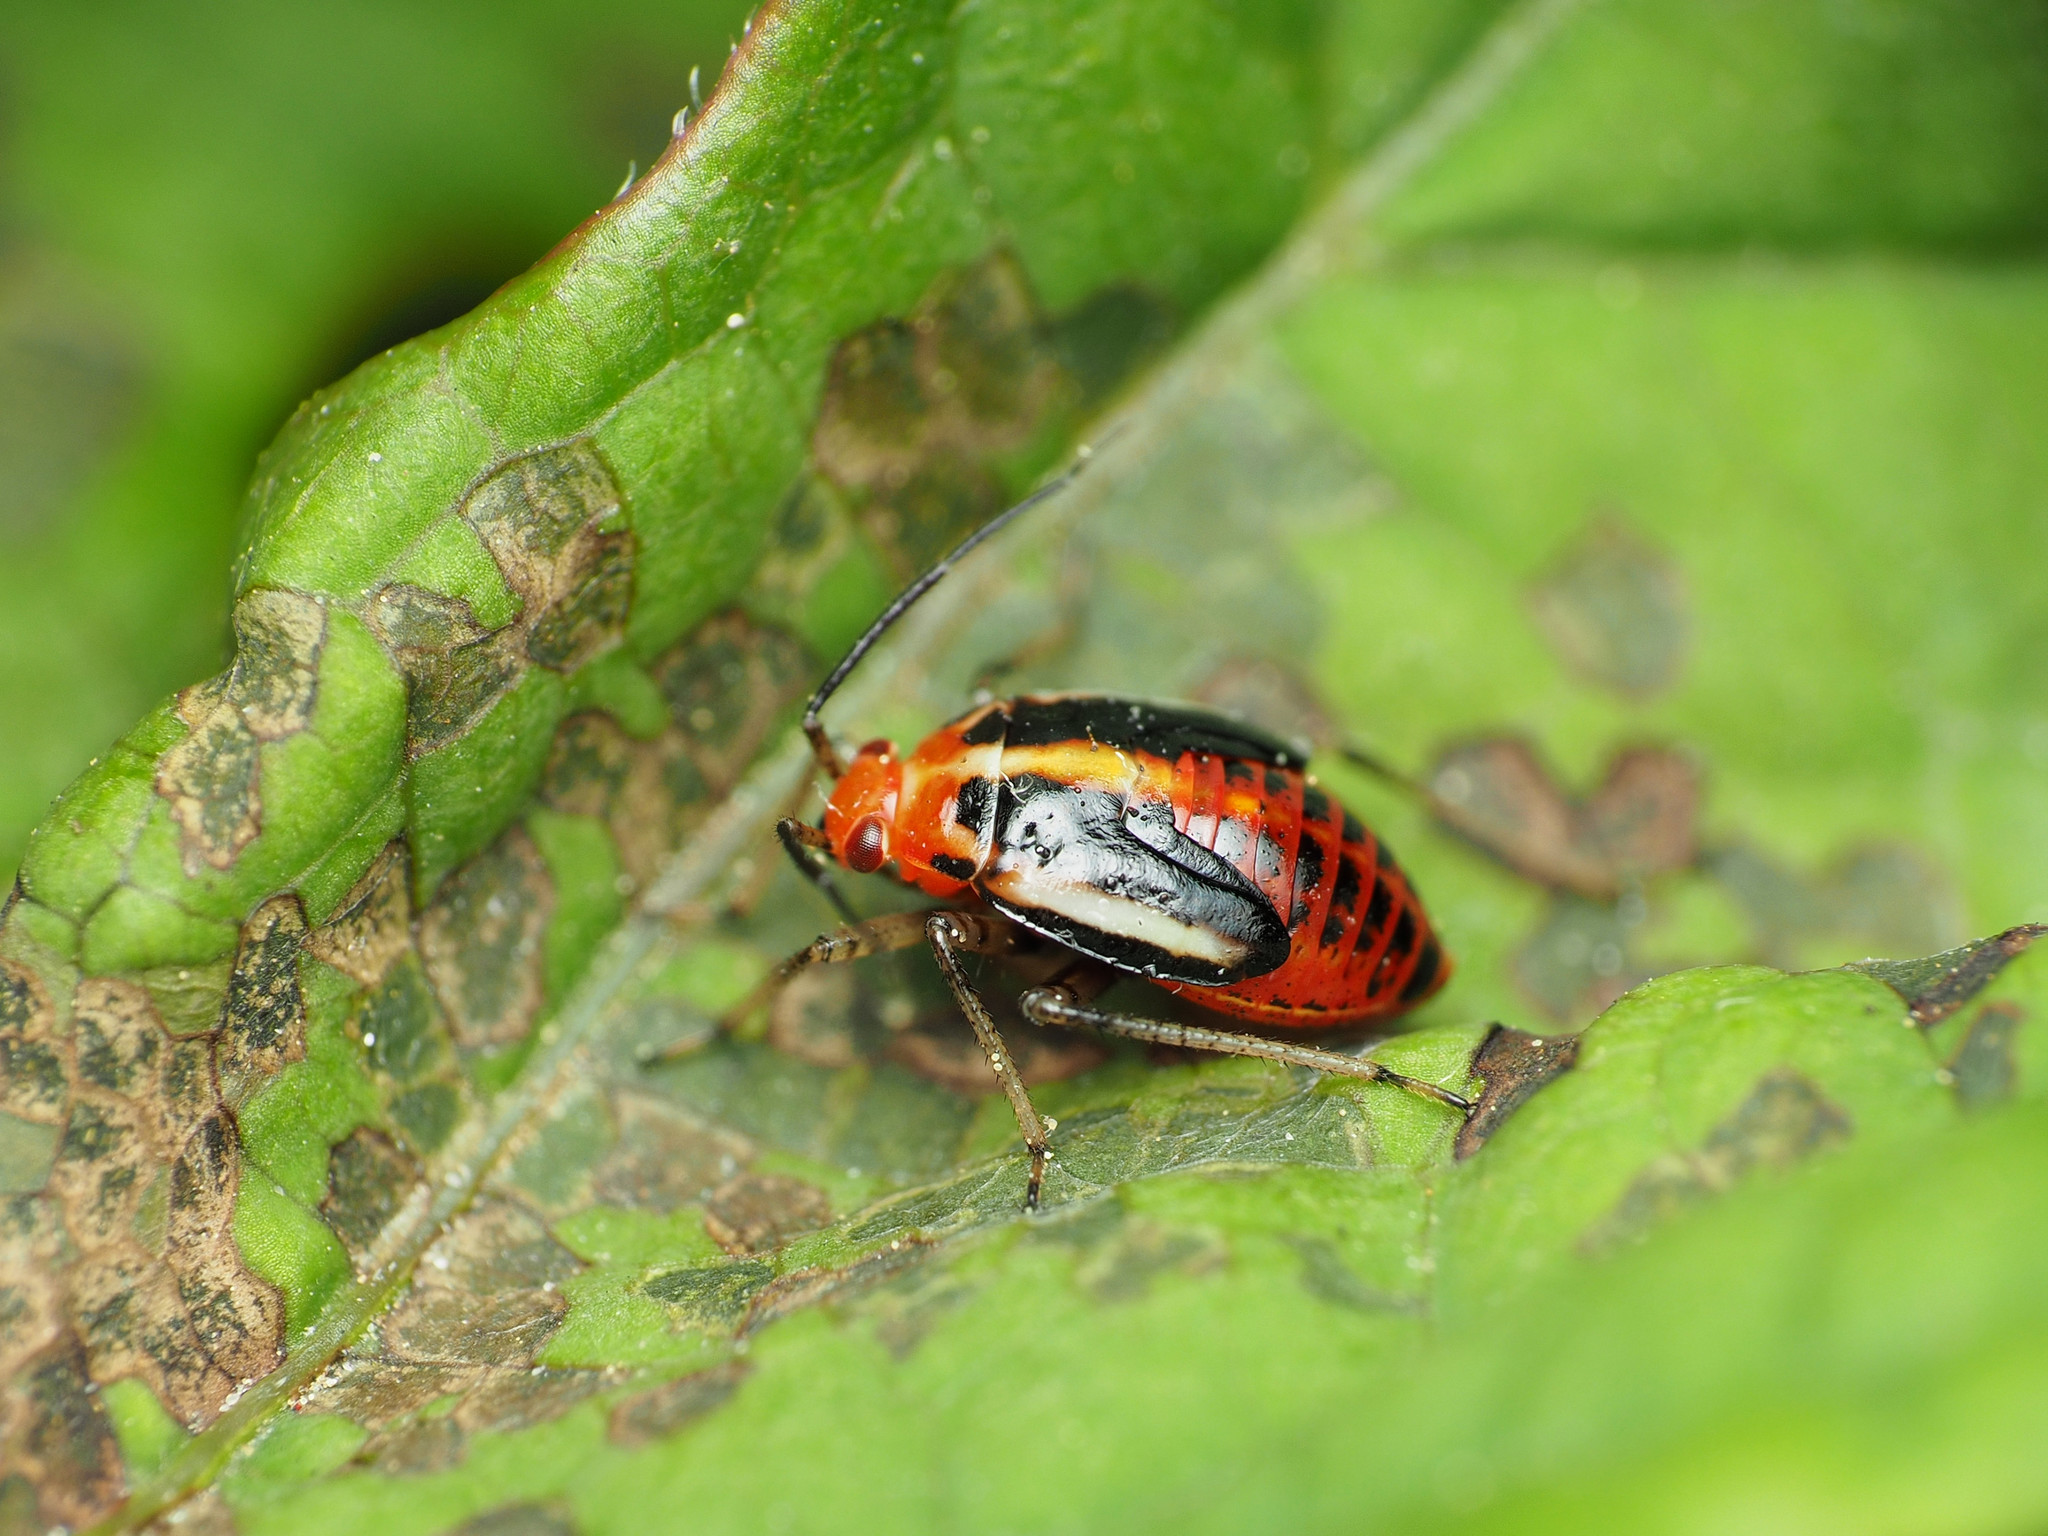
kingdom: Animalia
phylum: Arthropoda
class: Insecta
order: Hemiptera
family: Miridae
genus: Poecilocapsus
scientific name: Poecilocapsus lineatus
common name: Four-lined plant bug
